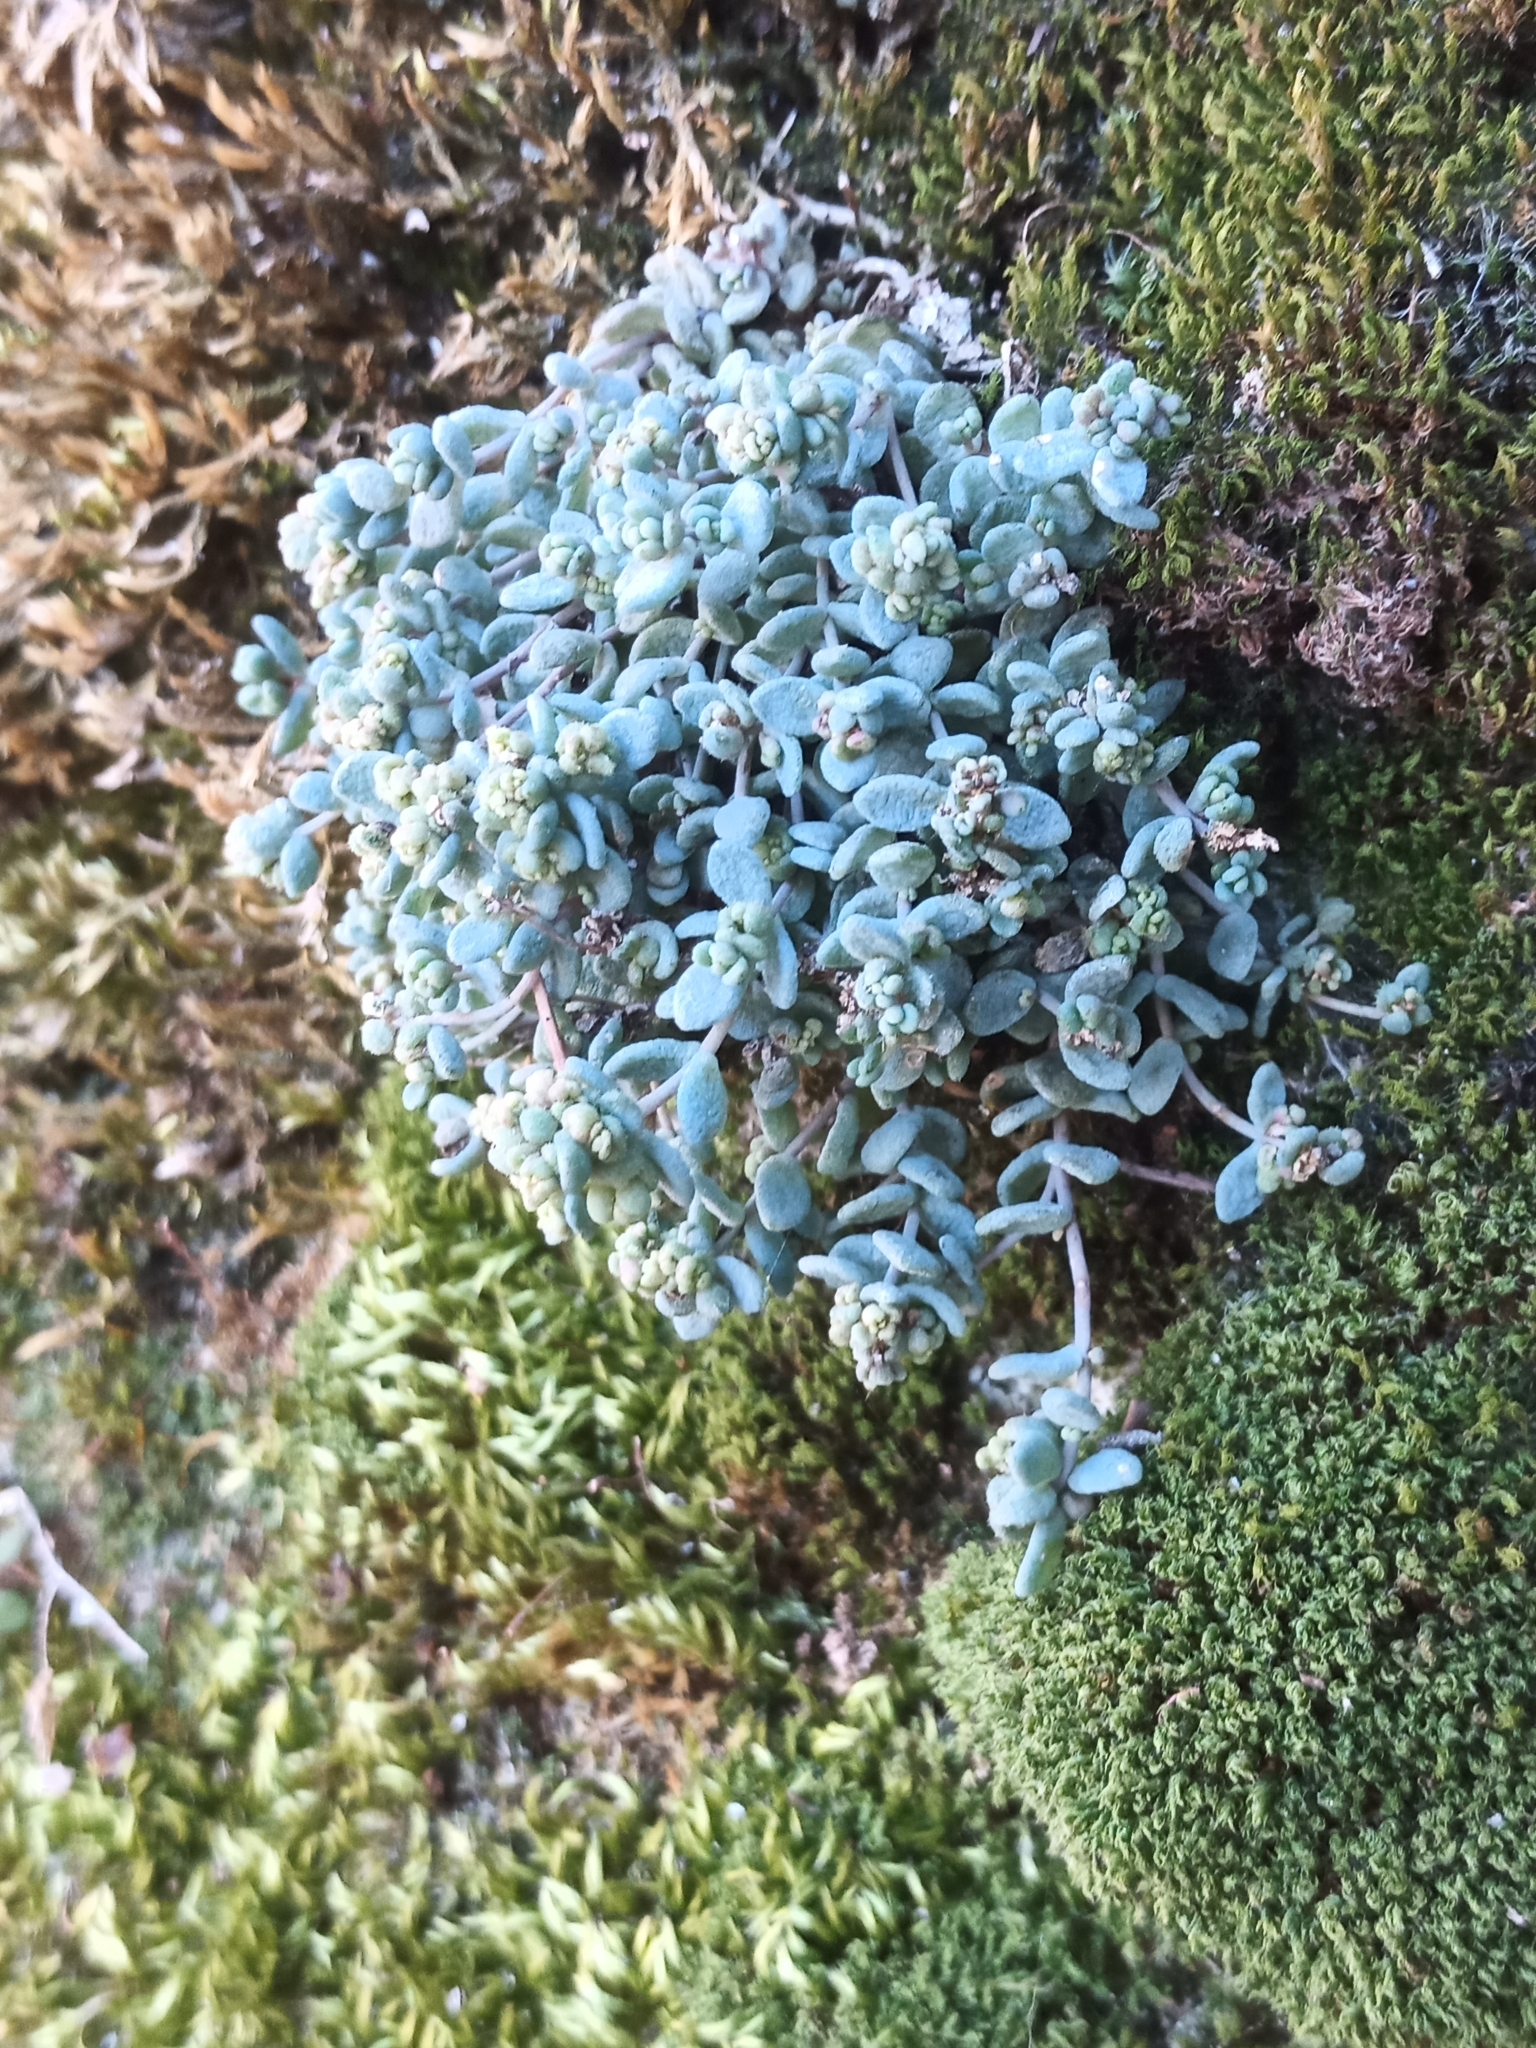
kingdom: Plantae
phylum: Tracheophyta
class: Magnoliopsida
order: Saxifragales
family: Crassulaceae
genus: Sedum
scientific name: Sedum dasyphyllum
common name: Thick-leaf stonecrop
